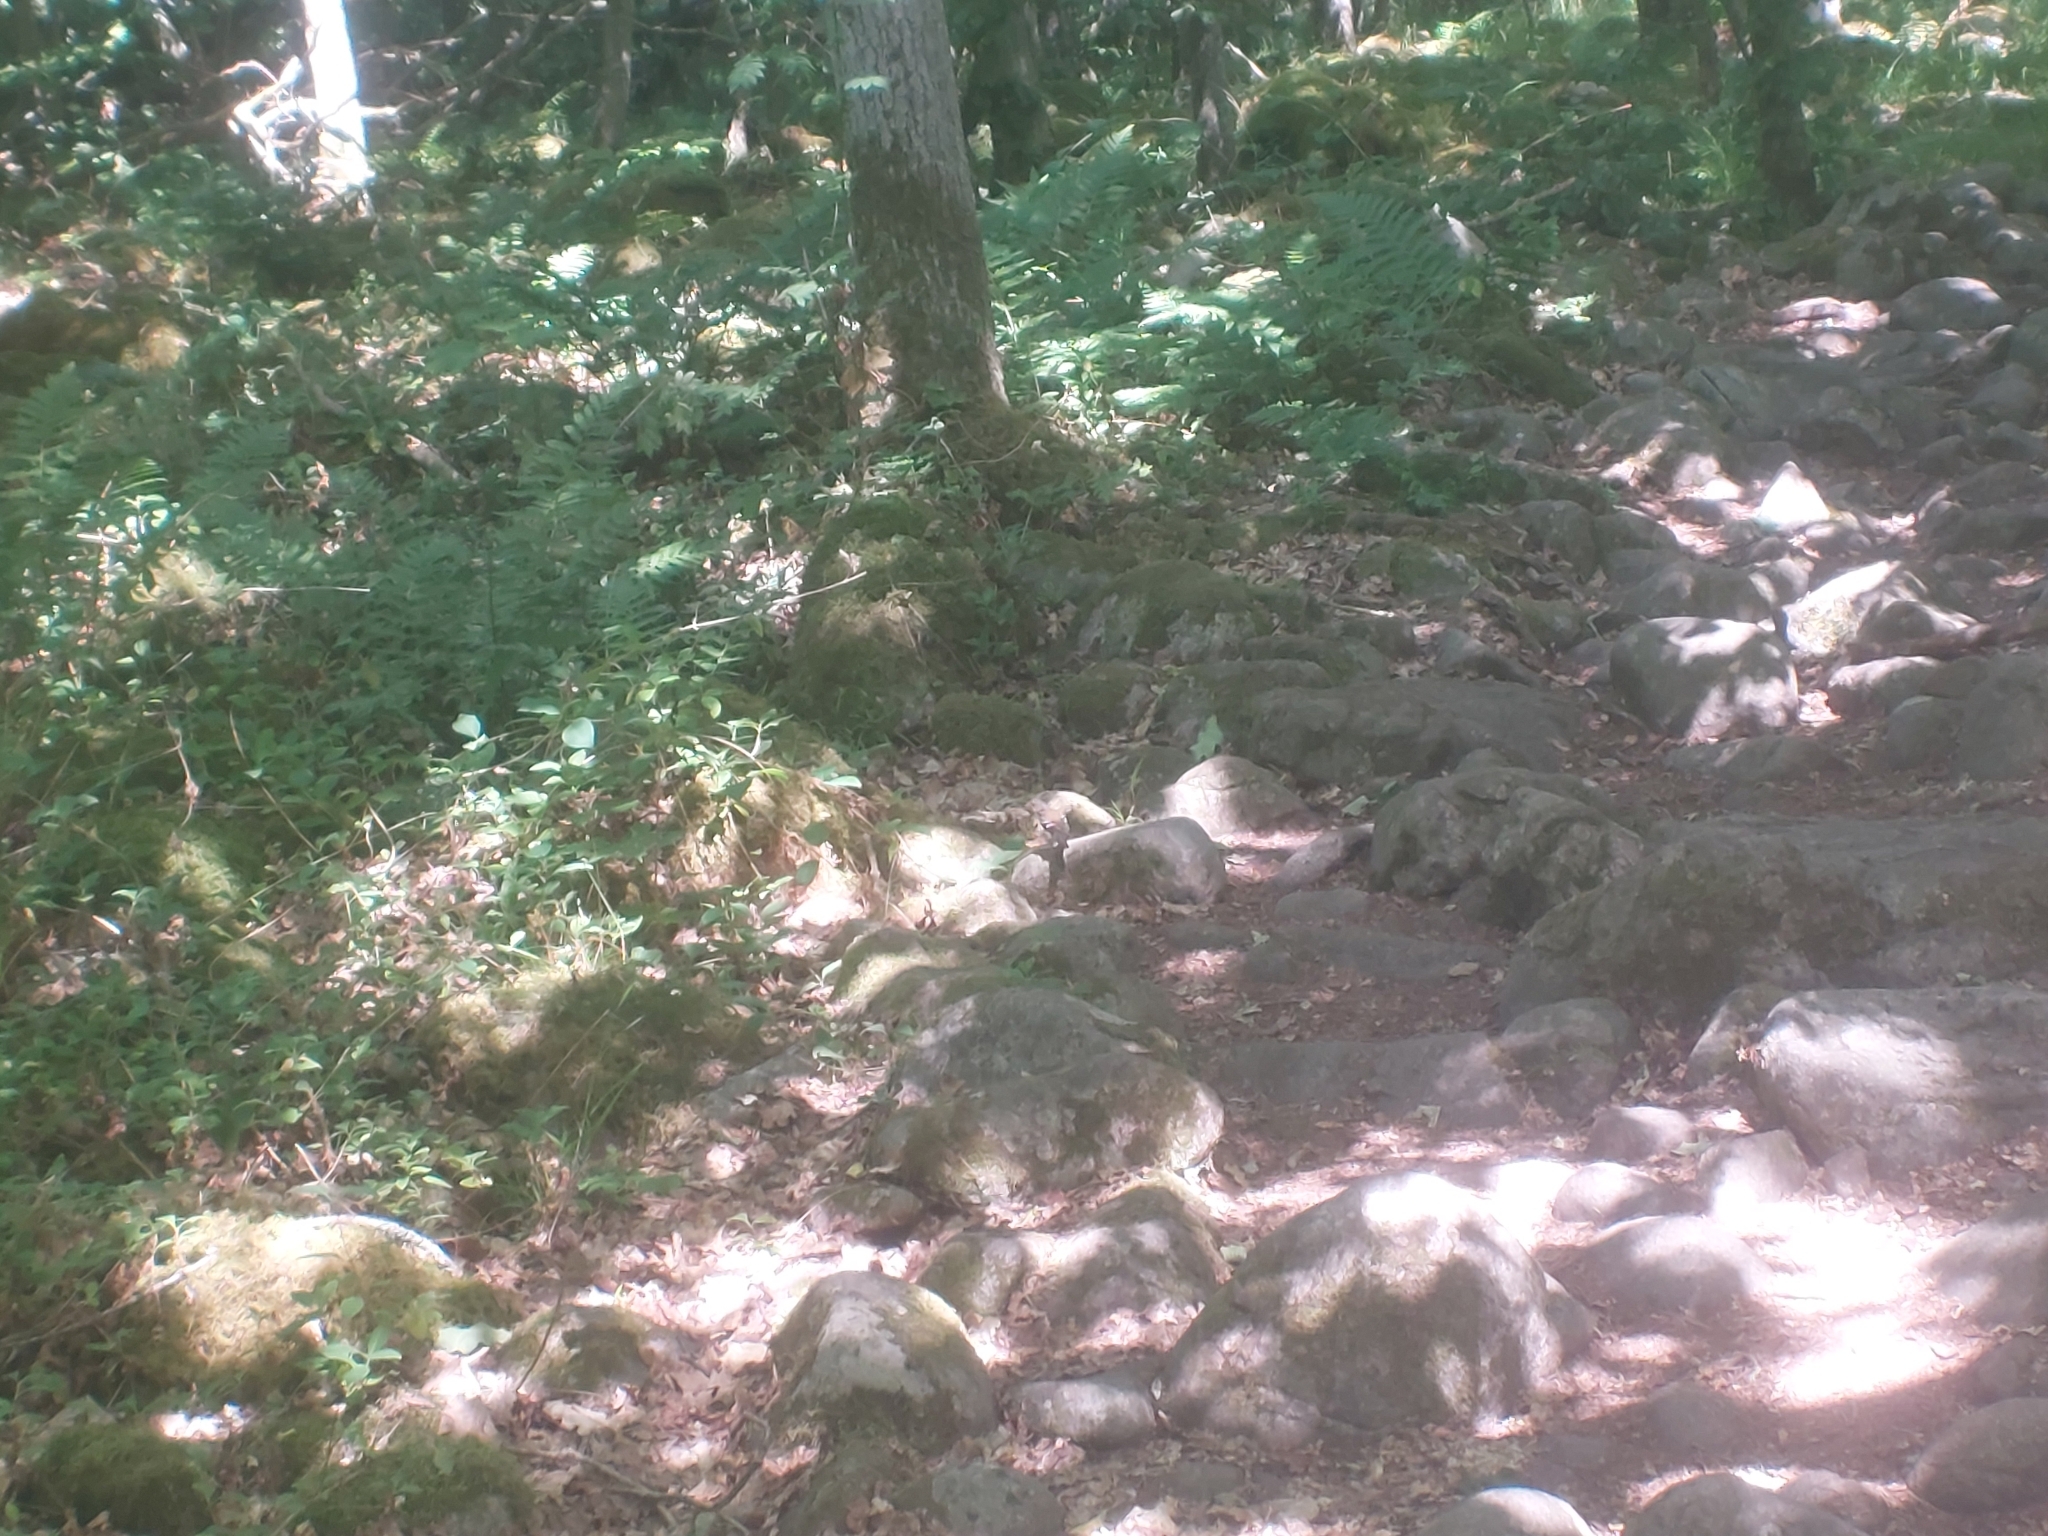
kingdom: Animalia
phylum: Chordata
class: Aves
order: Passeriformes
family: Fringillidae
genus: Fringilla
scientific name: Fringilla coelebs
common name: Common chaffinch
